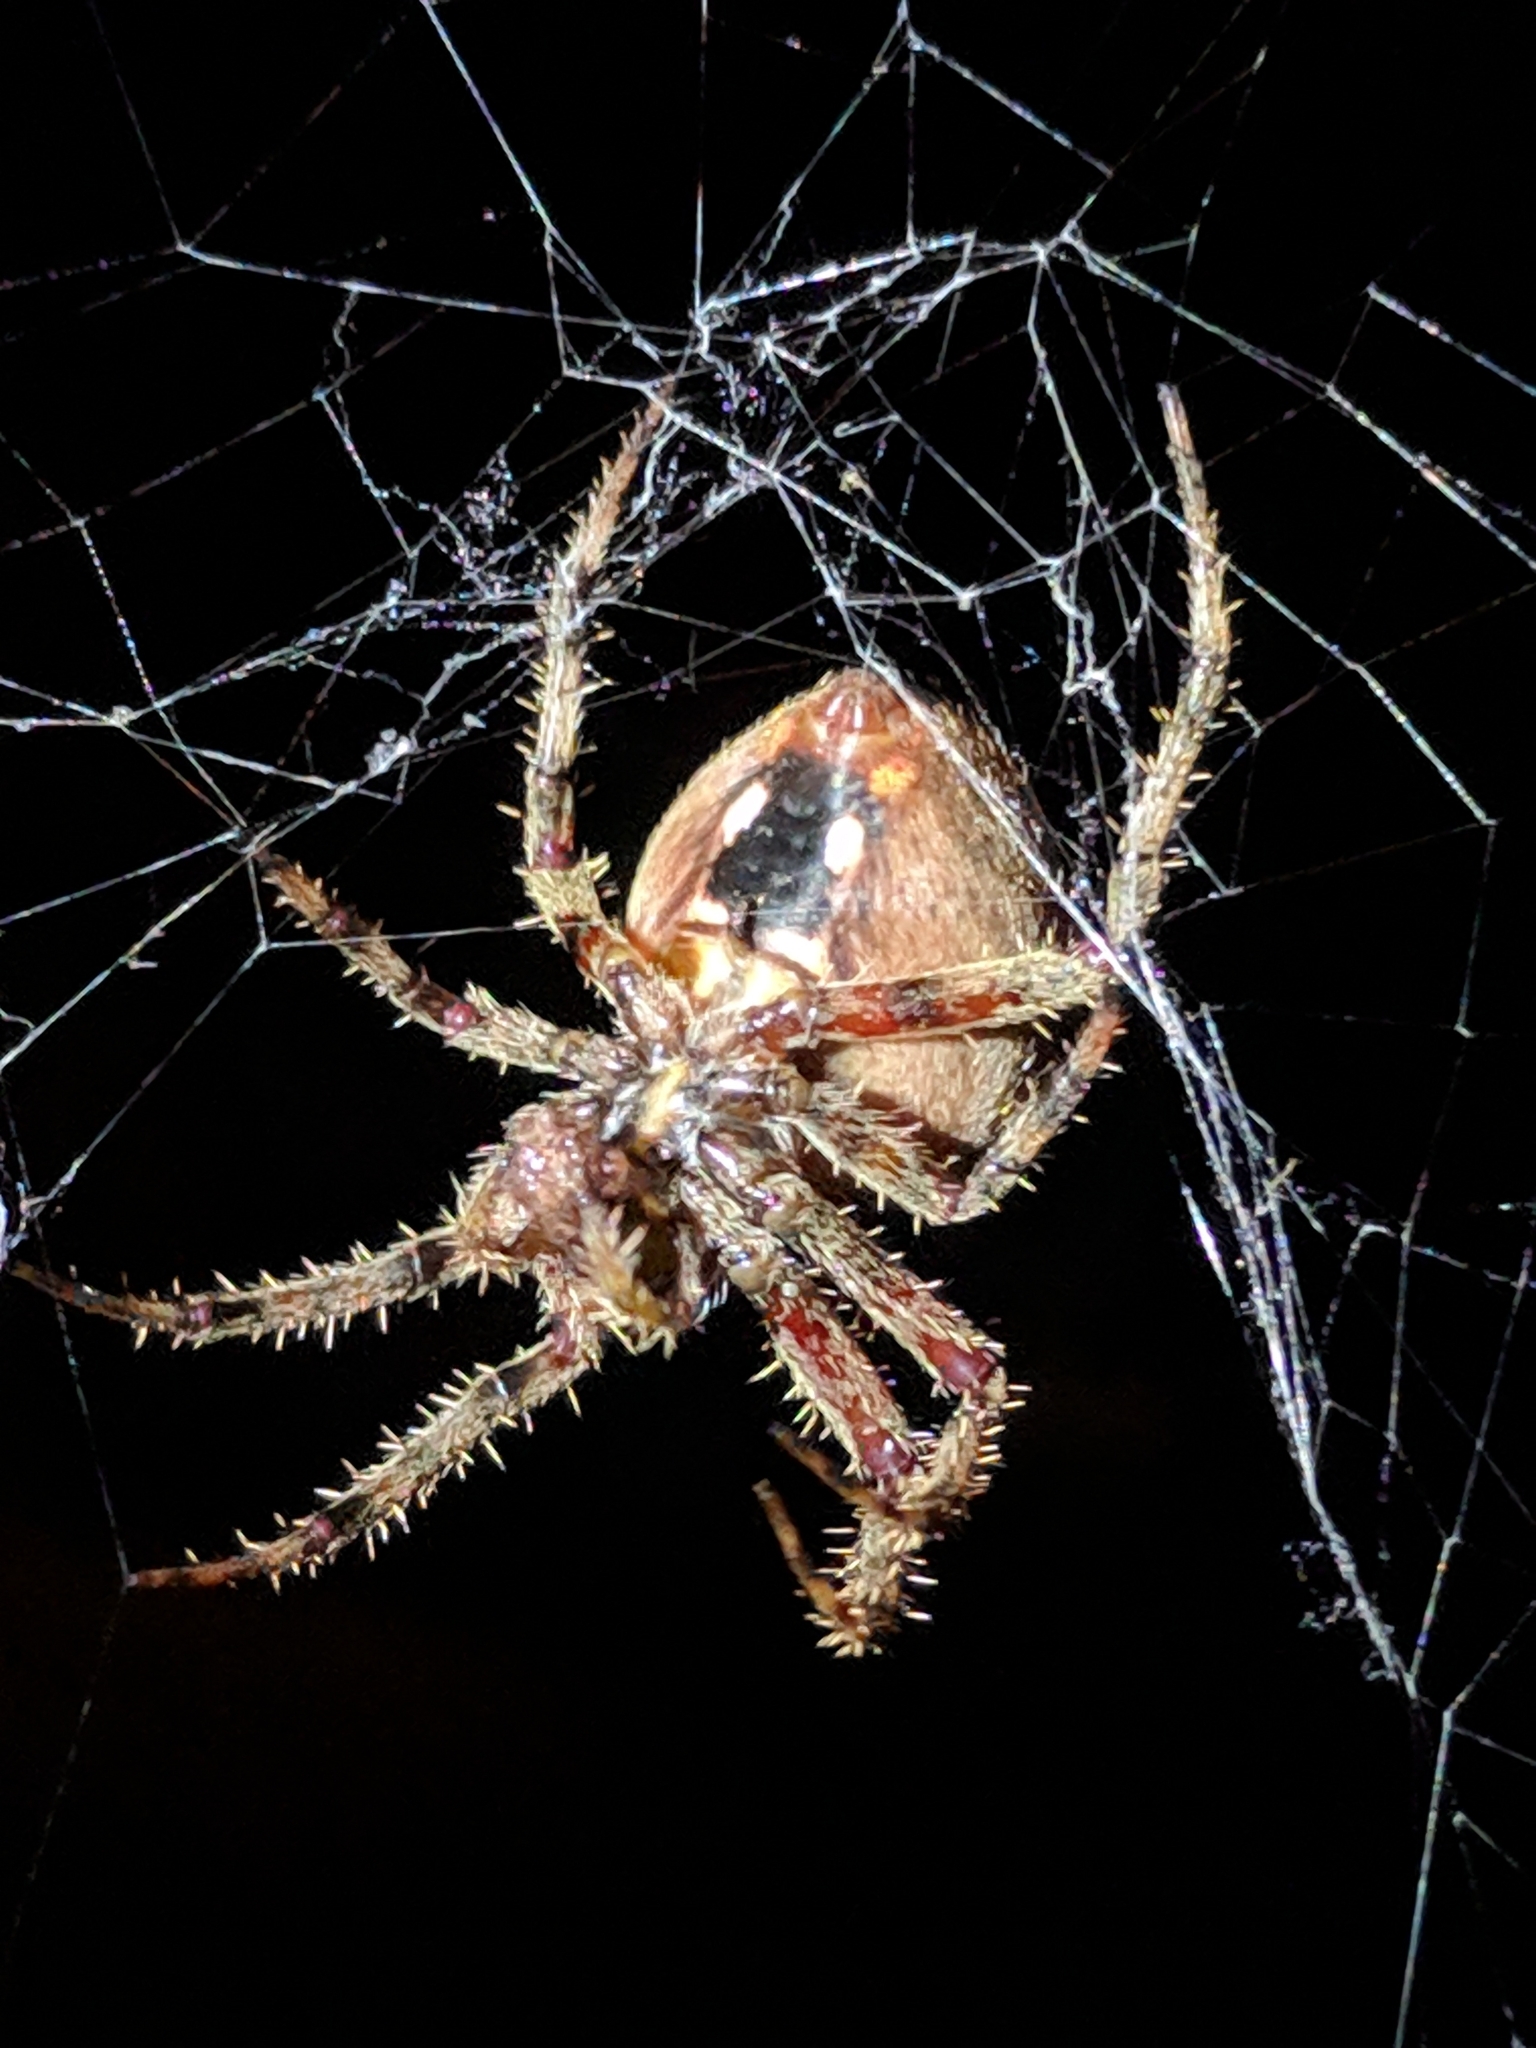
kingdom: Animalia
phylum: Arthropoda
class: Arachnida
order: Araneae
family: Araneidae
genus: Neoscona
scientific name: Neoscona crucifera
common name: Spotted orbweaver
